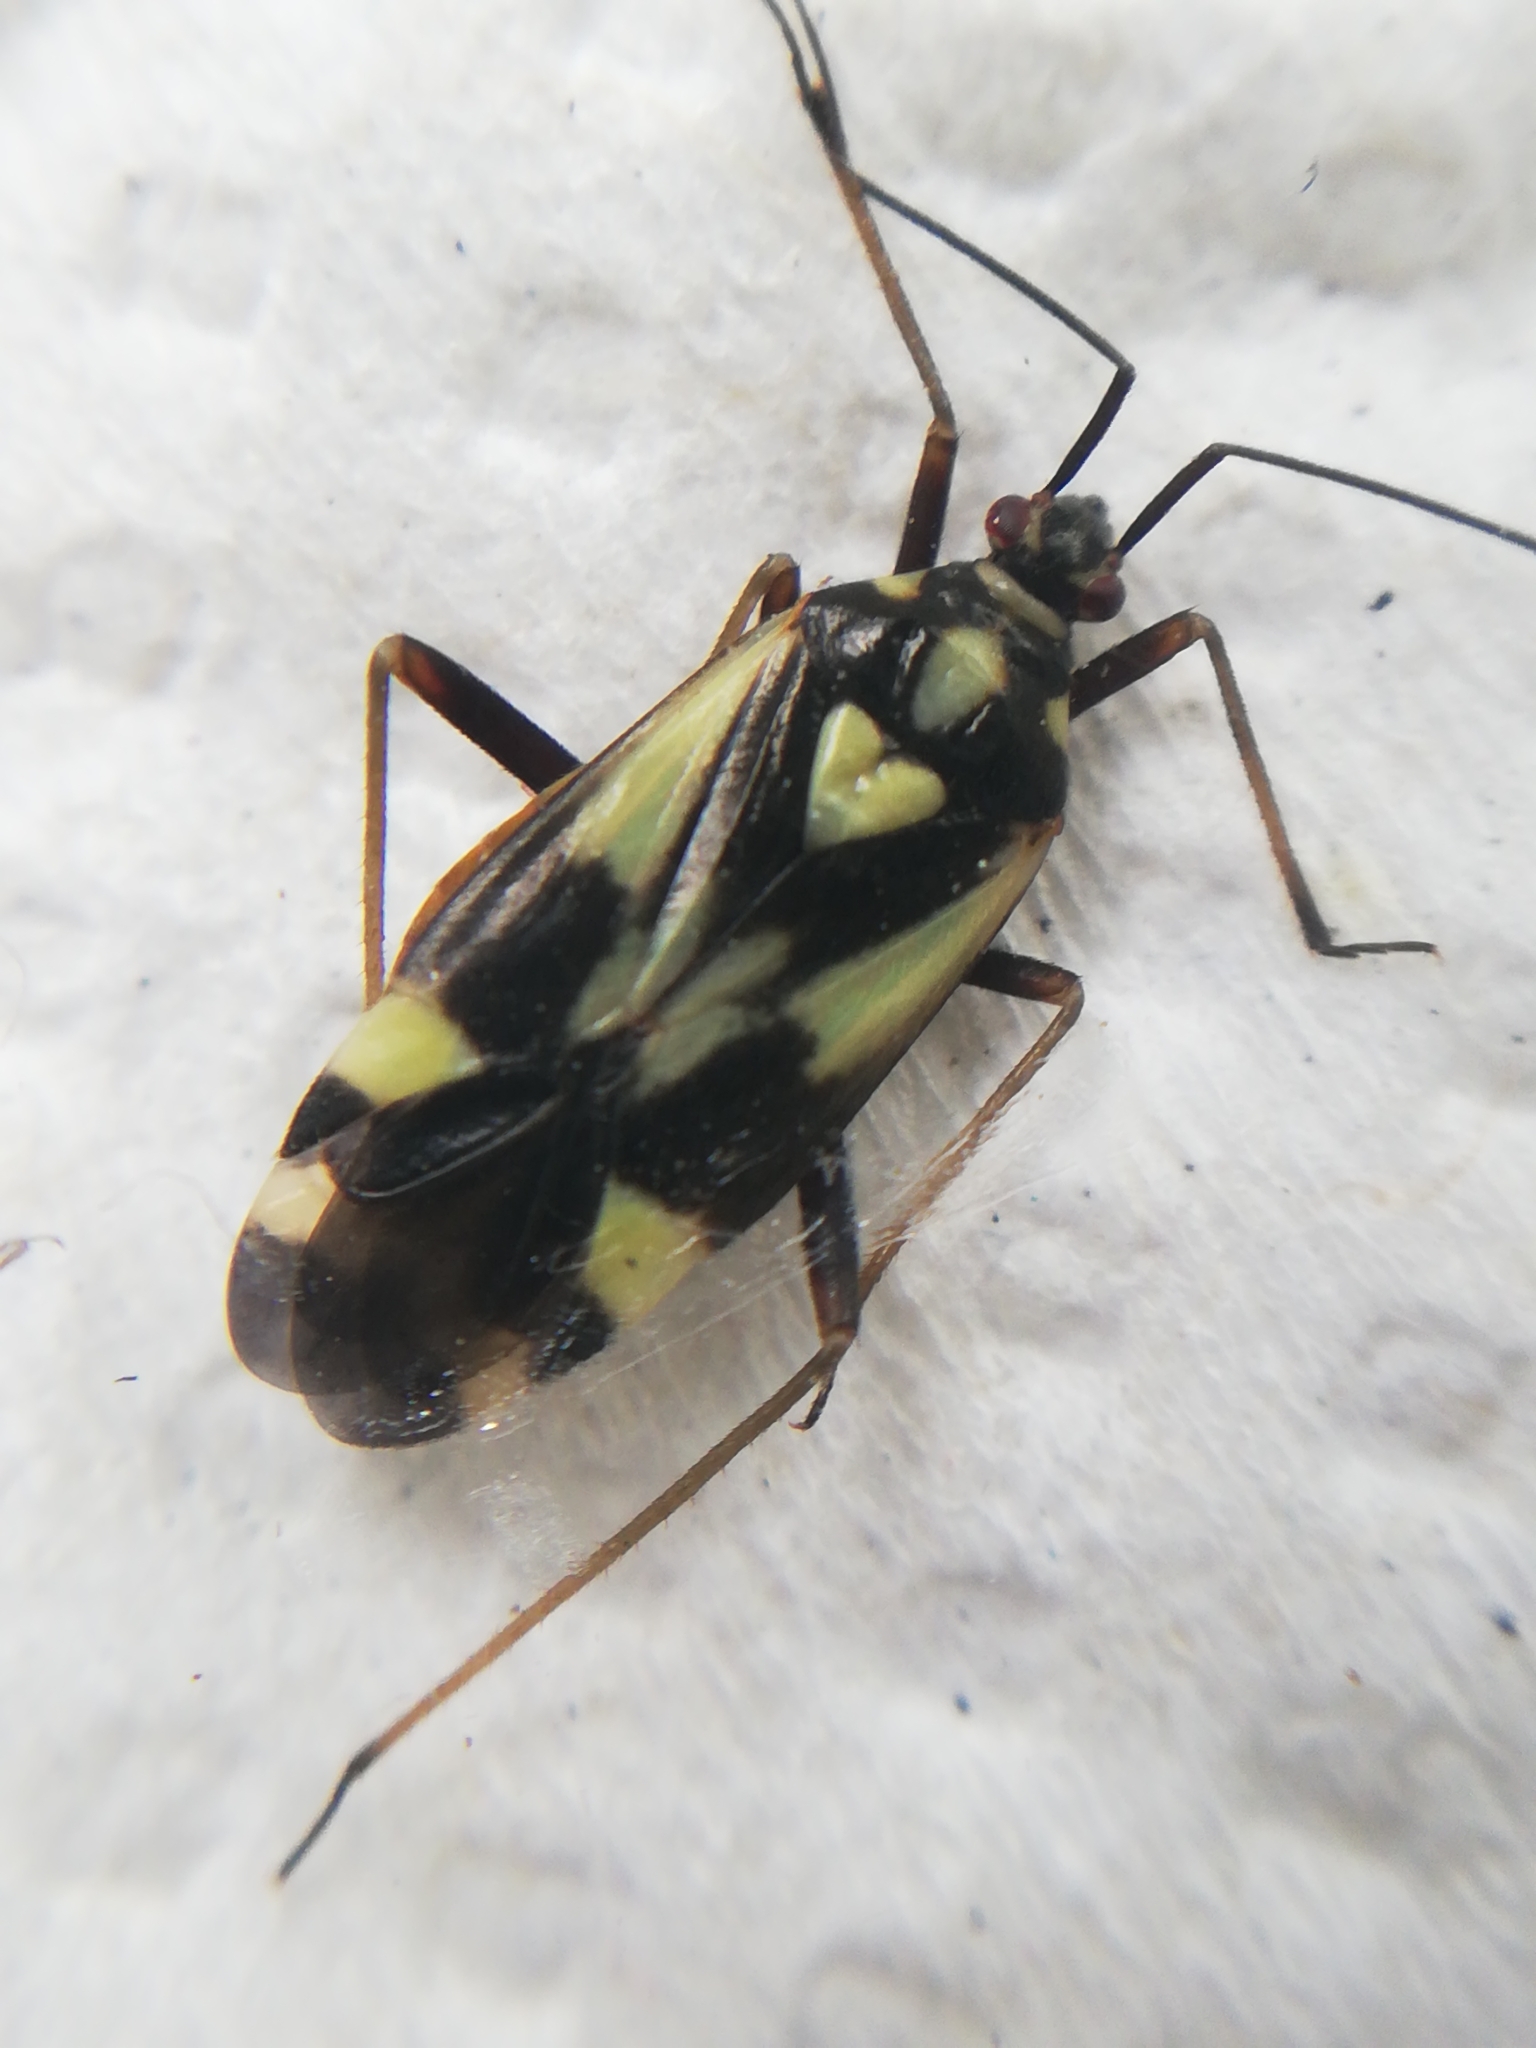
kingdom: Animalia
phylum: Arthropoda
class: Insecta
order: Hemiptera
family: Miridae
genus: Grypocoris
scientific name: Grypocoris sexguttatus
